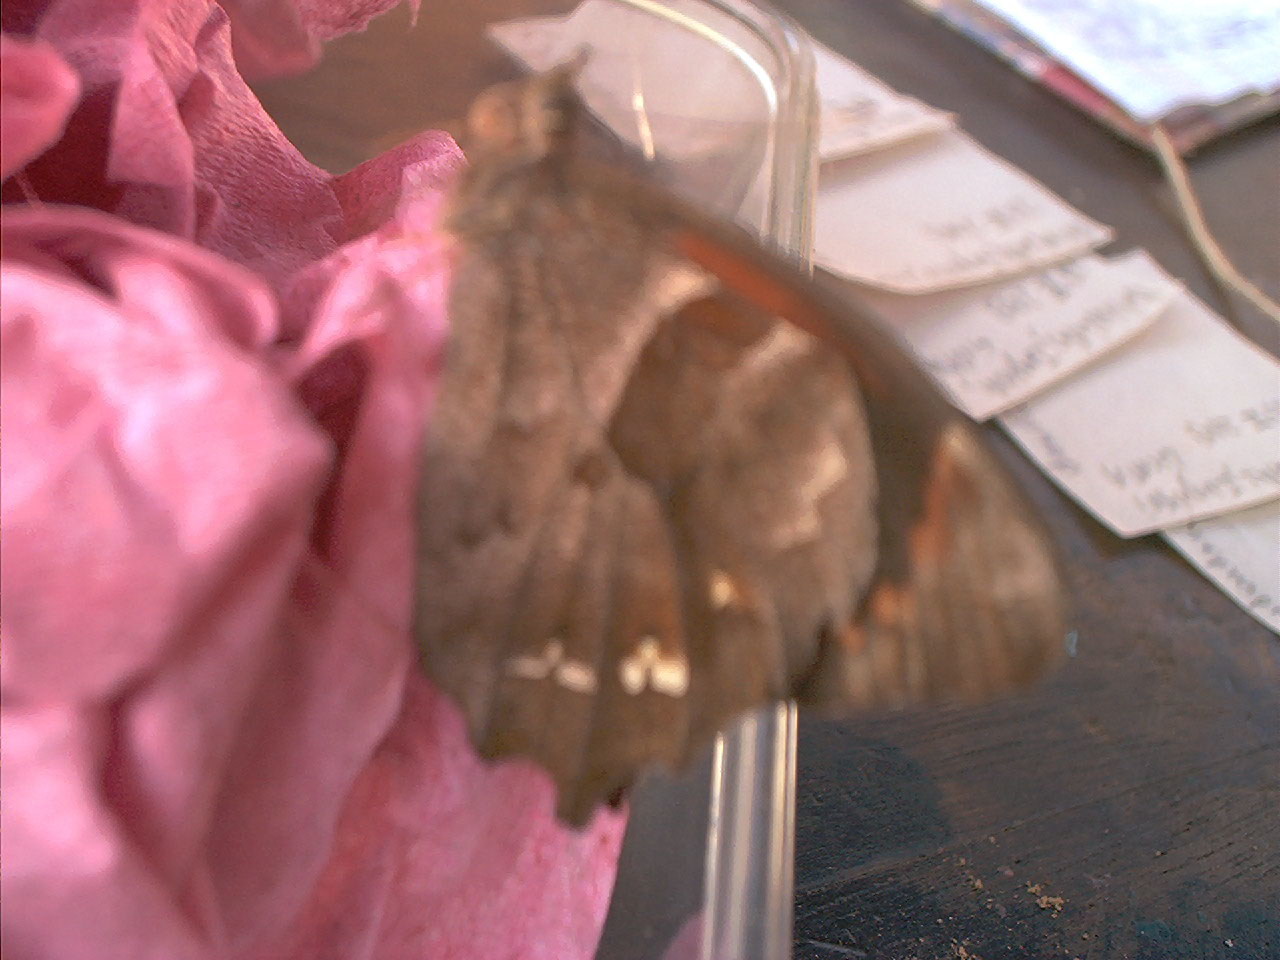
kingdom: Animalia
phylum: Arthropoda
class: Insecta
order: Lepidoptera
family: Nymphalidae
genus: Lasiophila
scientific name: Lasiophila orbifera
